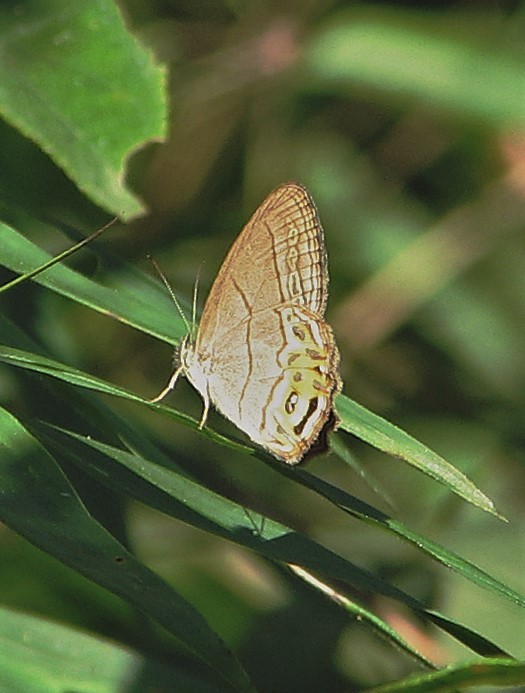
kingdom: Animalia
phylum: Arthropoda
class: Insecta
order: Lepidoptera
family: Nymphalidae
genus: Splendeuptychia
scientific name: Splendeuptychia libitina
